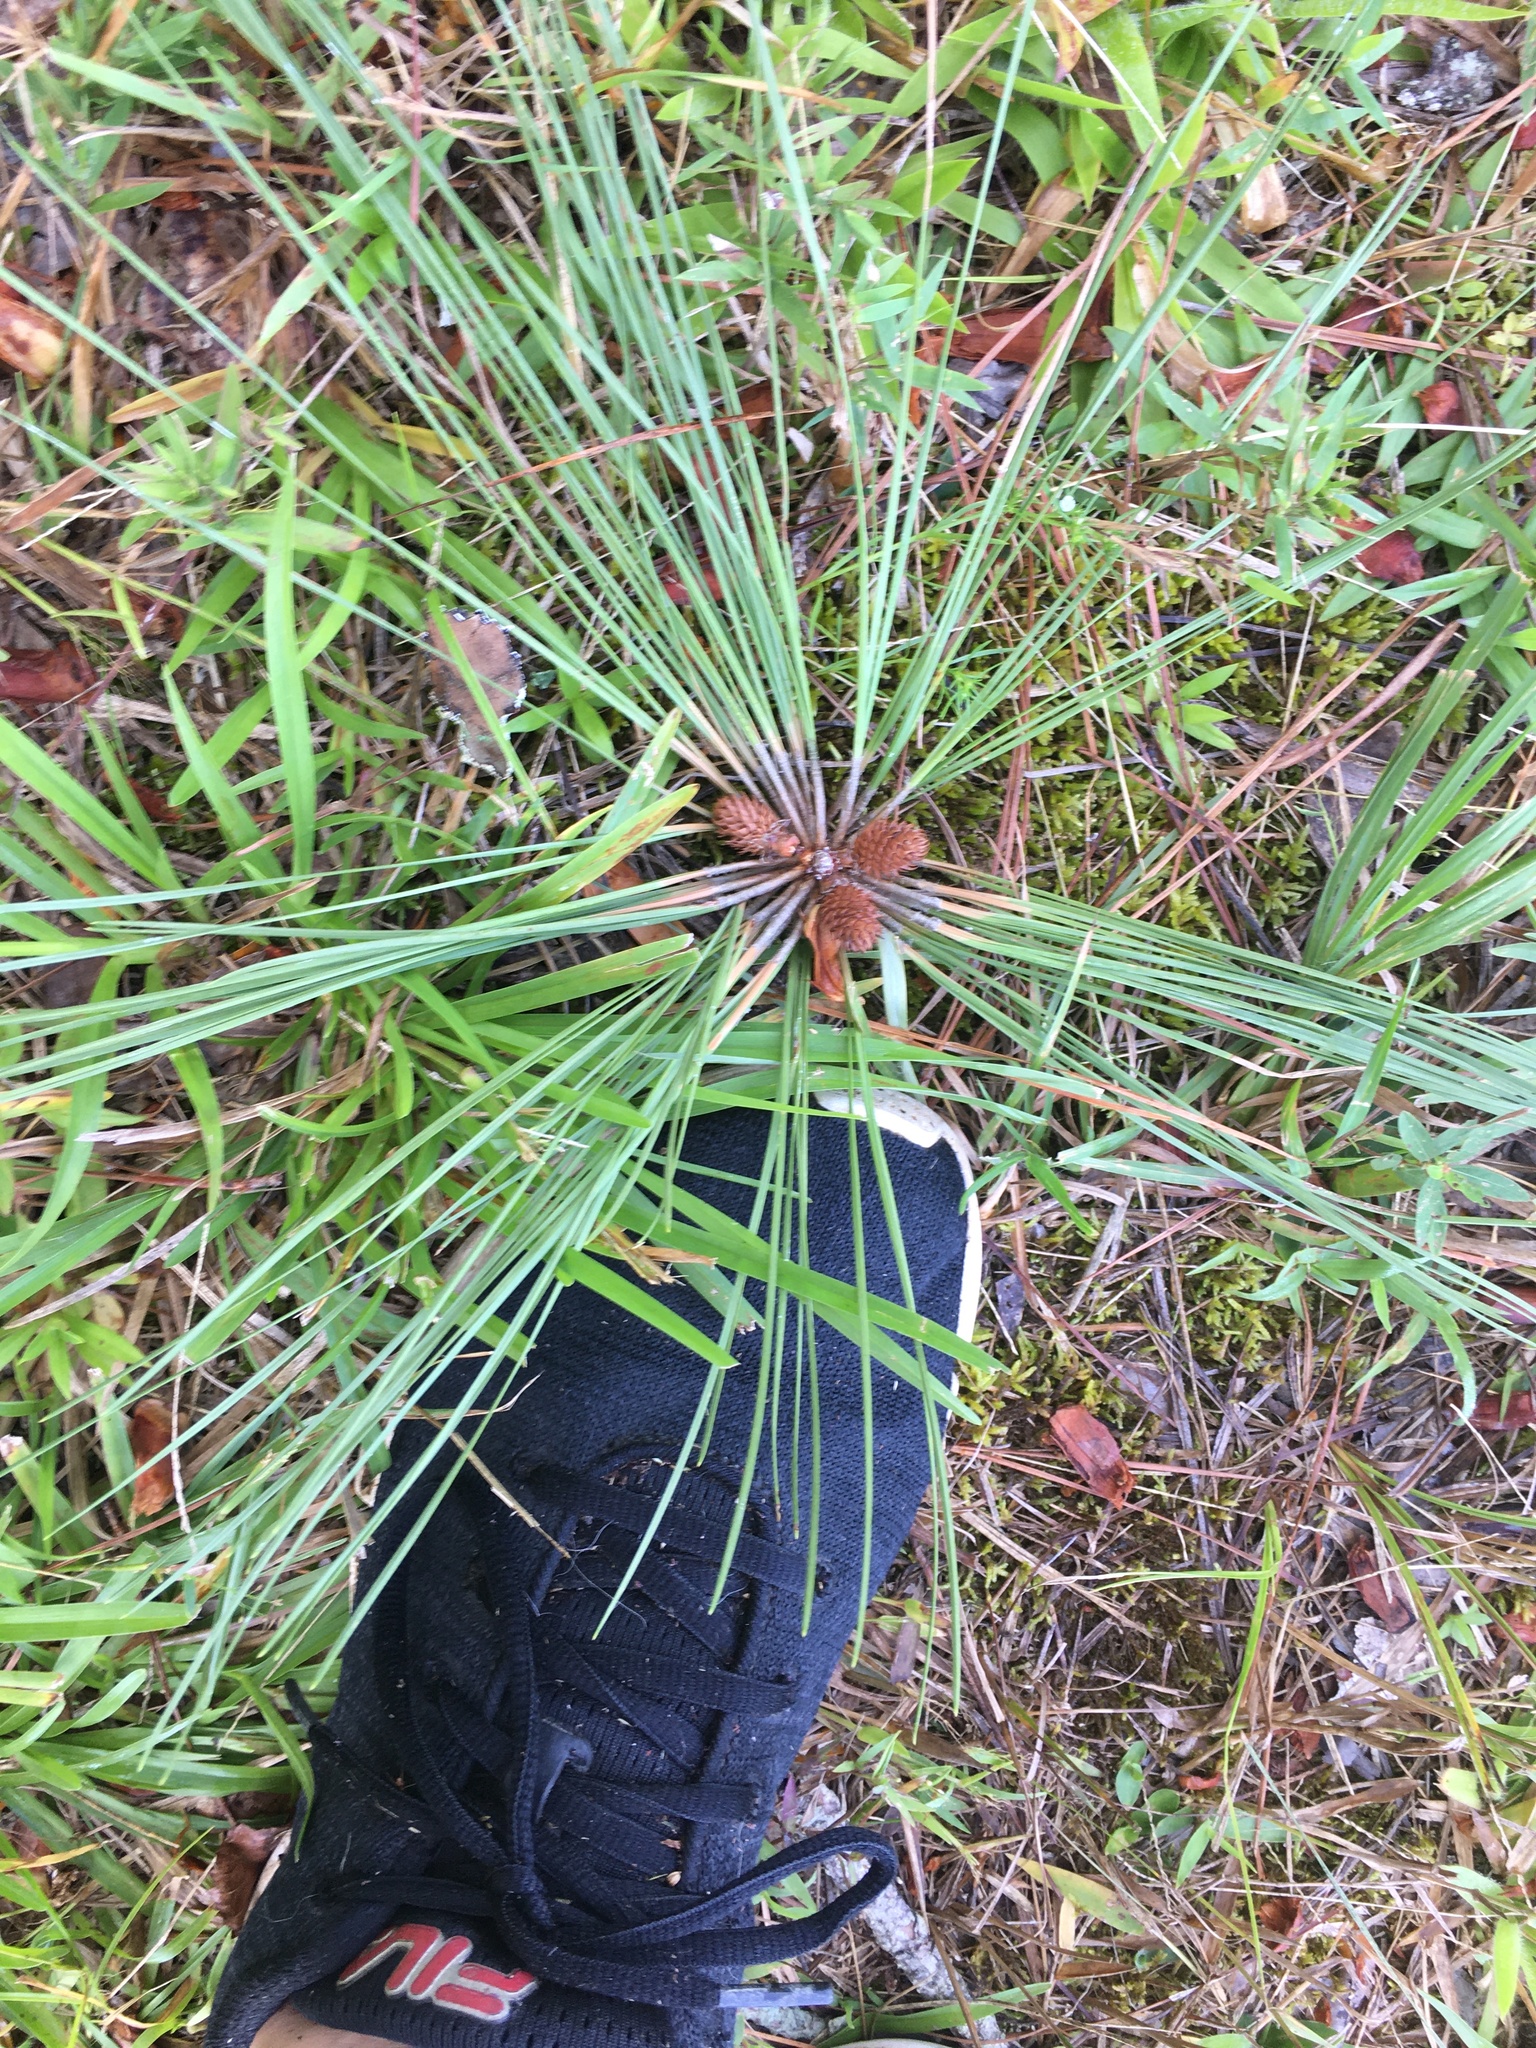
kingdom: Plantae
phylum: Tracheophyta
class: Pinopsida
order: Pinales
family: Pinaceae
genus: Pinus
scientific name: Pinus taeda
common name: Loblolly pine
